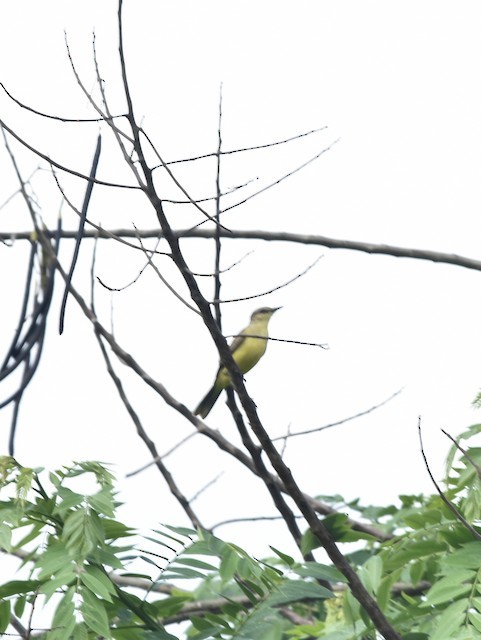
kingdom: Animalia
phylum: Chordata
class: Aves
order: Passeriformes
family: Tyrannidae
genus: Machetornis
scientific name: Machetornis rixosa
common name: Cattle tyrant
